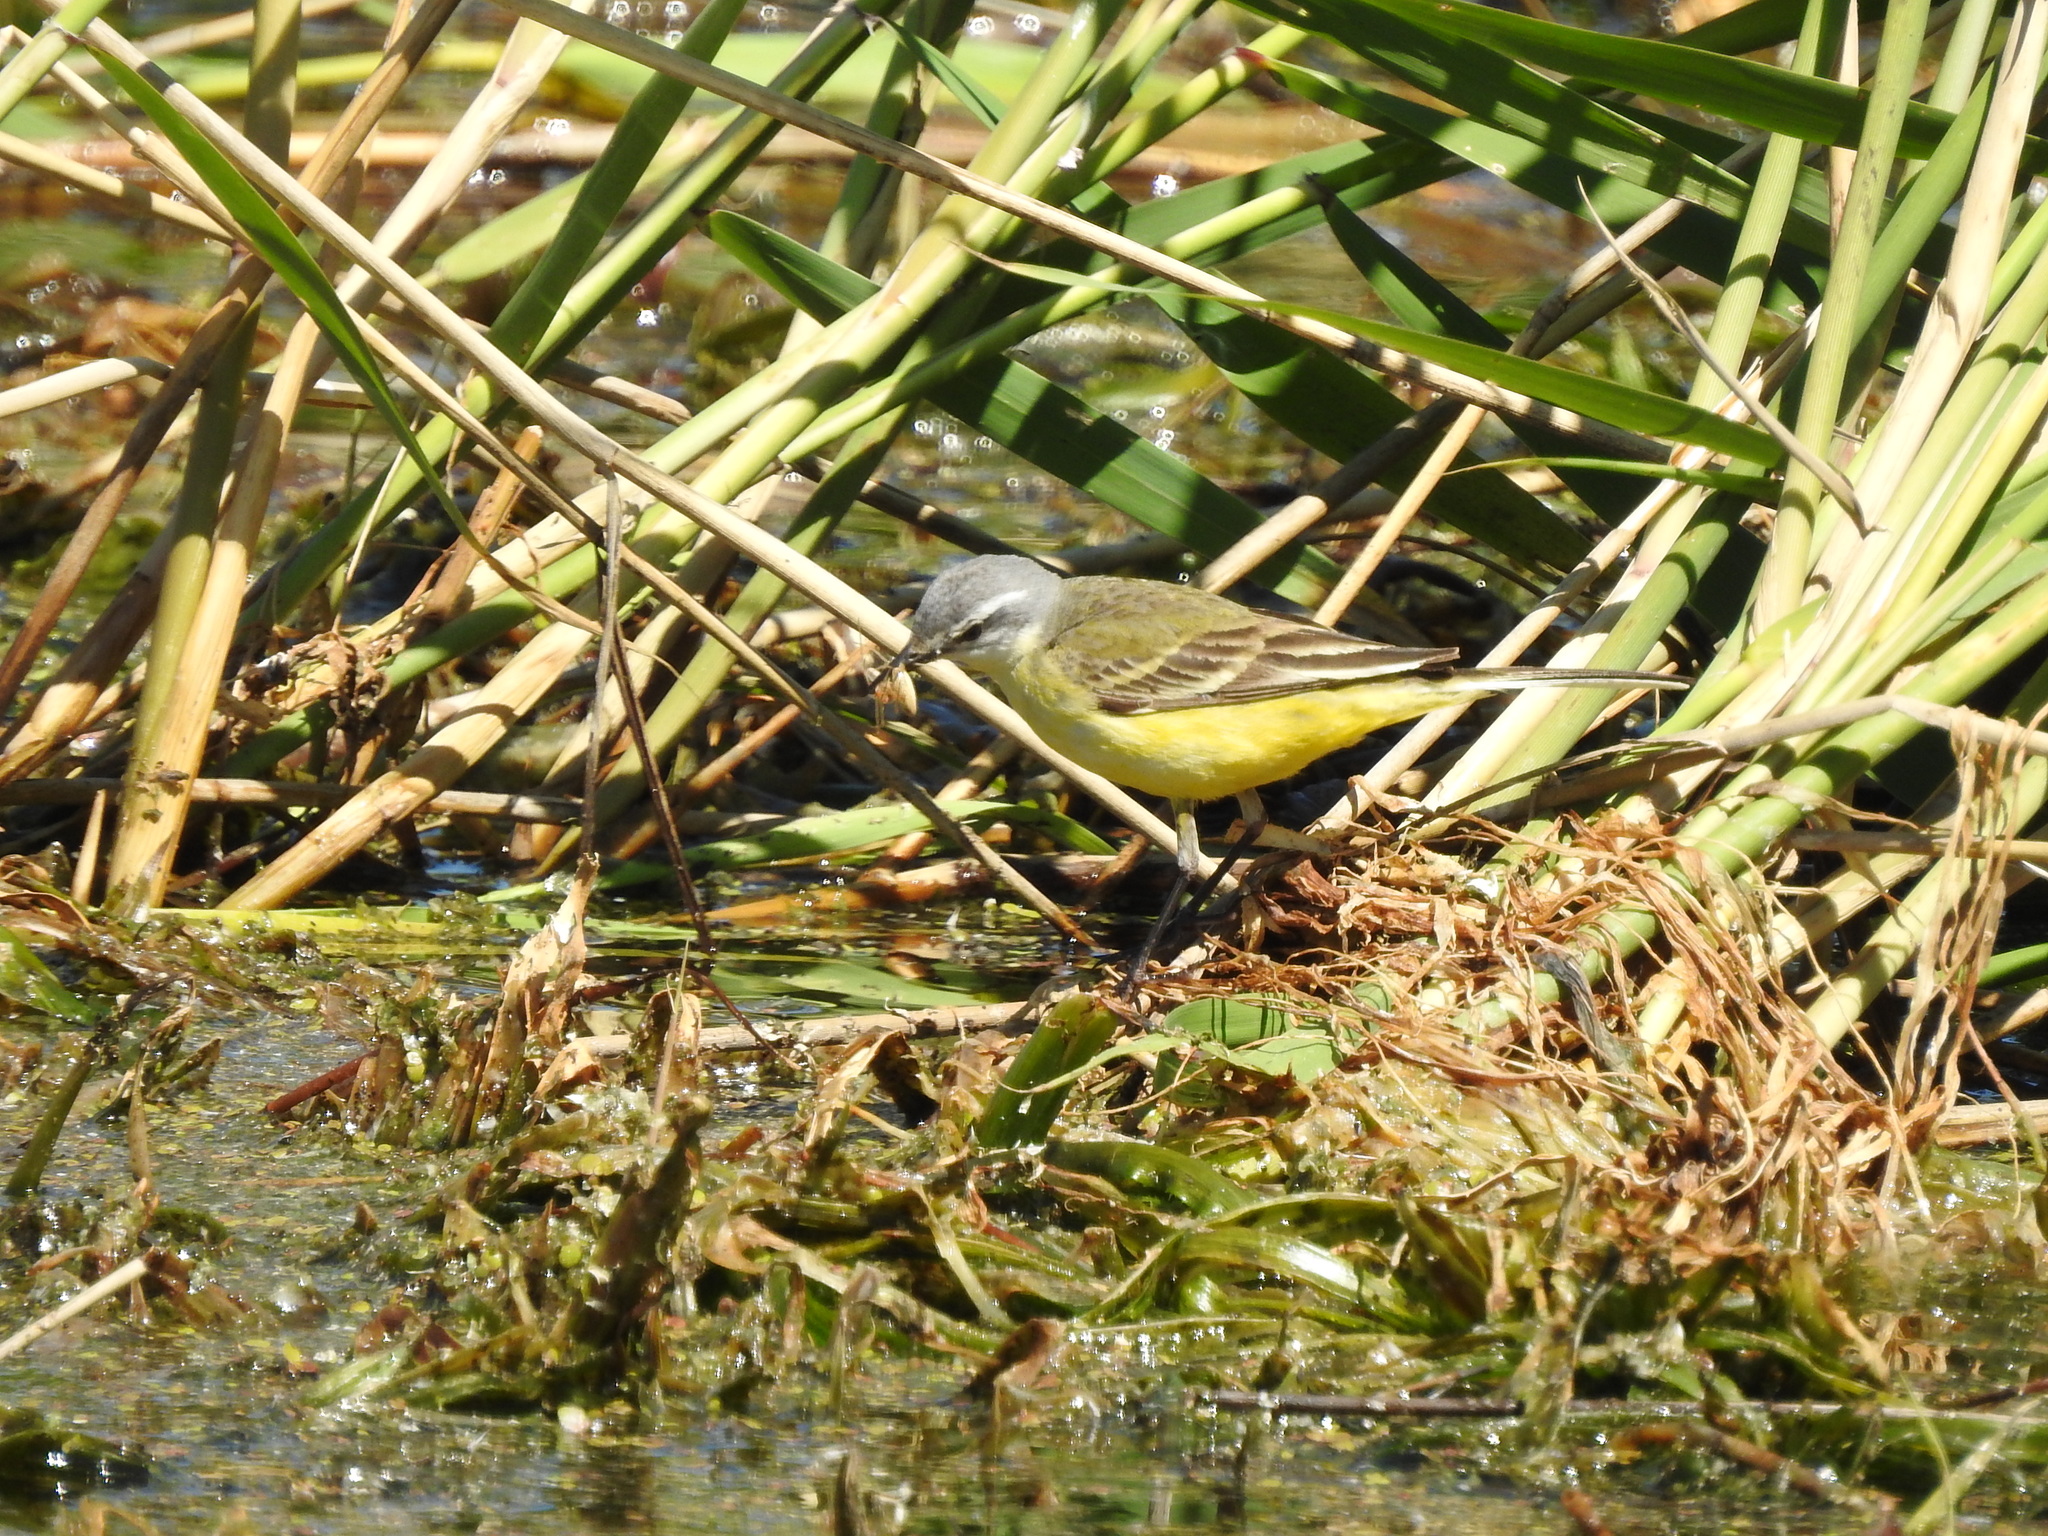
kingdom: Animalia
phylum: Chordata
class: Aves
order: Passeriformes
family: Motacillidae
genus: Motacilla
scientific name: Motacilla flava
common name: Western yellow wagtail
